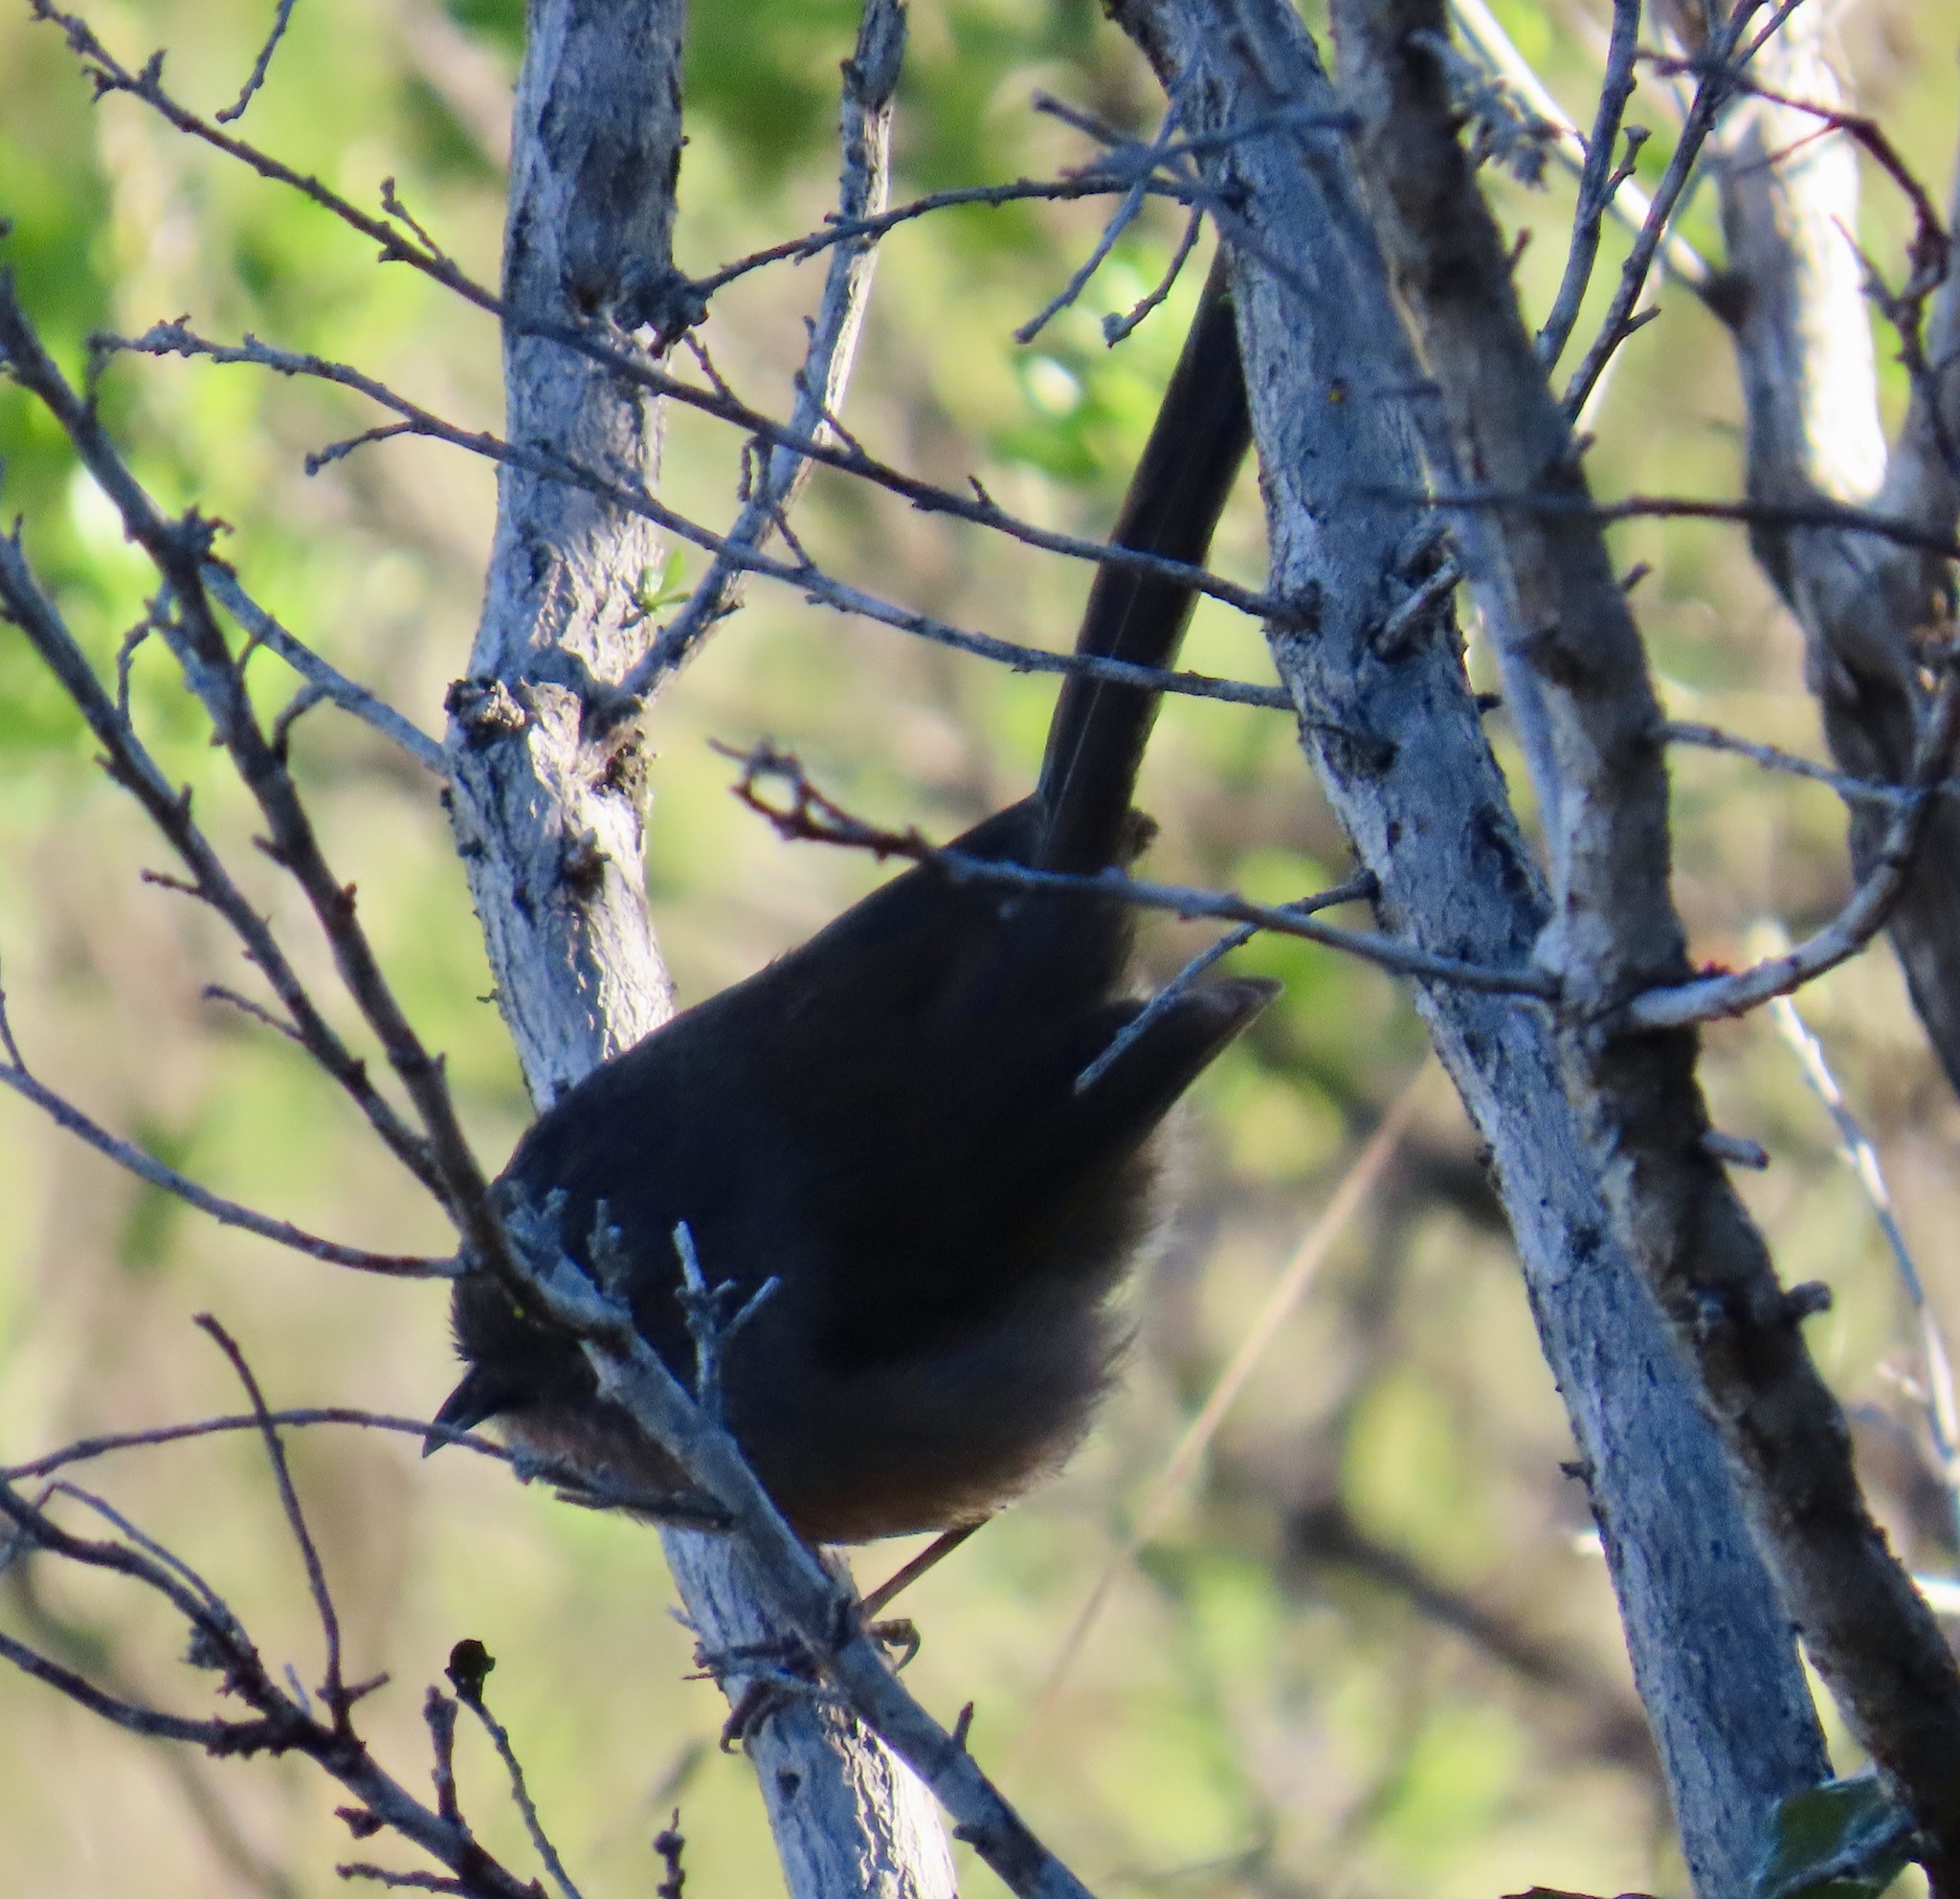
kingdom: Animalia
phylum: Chordata
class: Aves
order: Passeriformes
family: Sylviidae
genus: Chamaea
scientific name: Chamaea fasciata
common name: Wrentit
